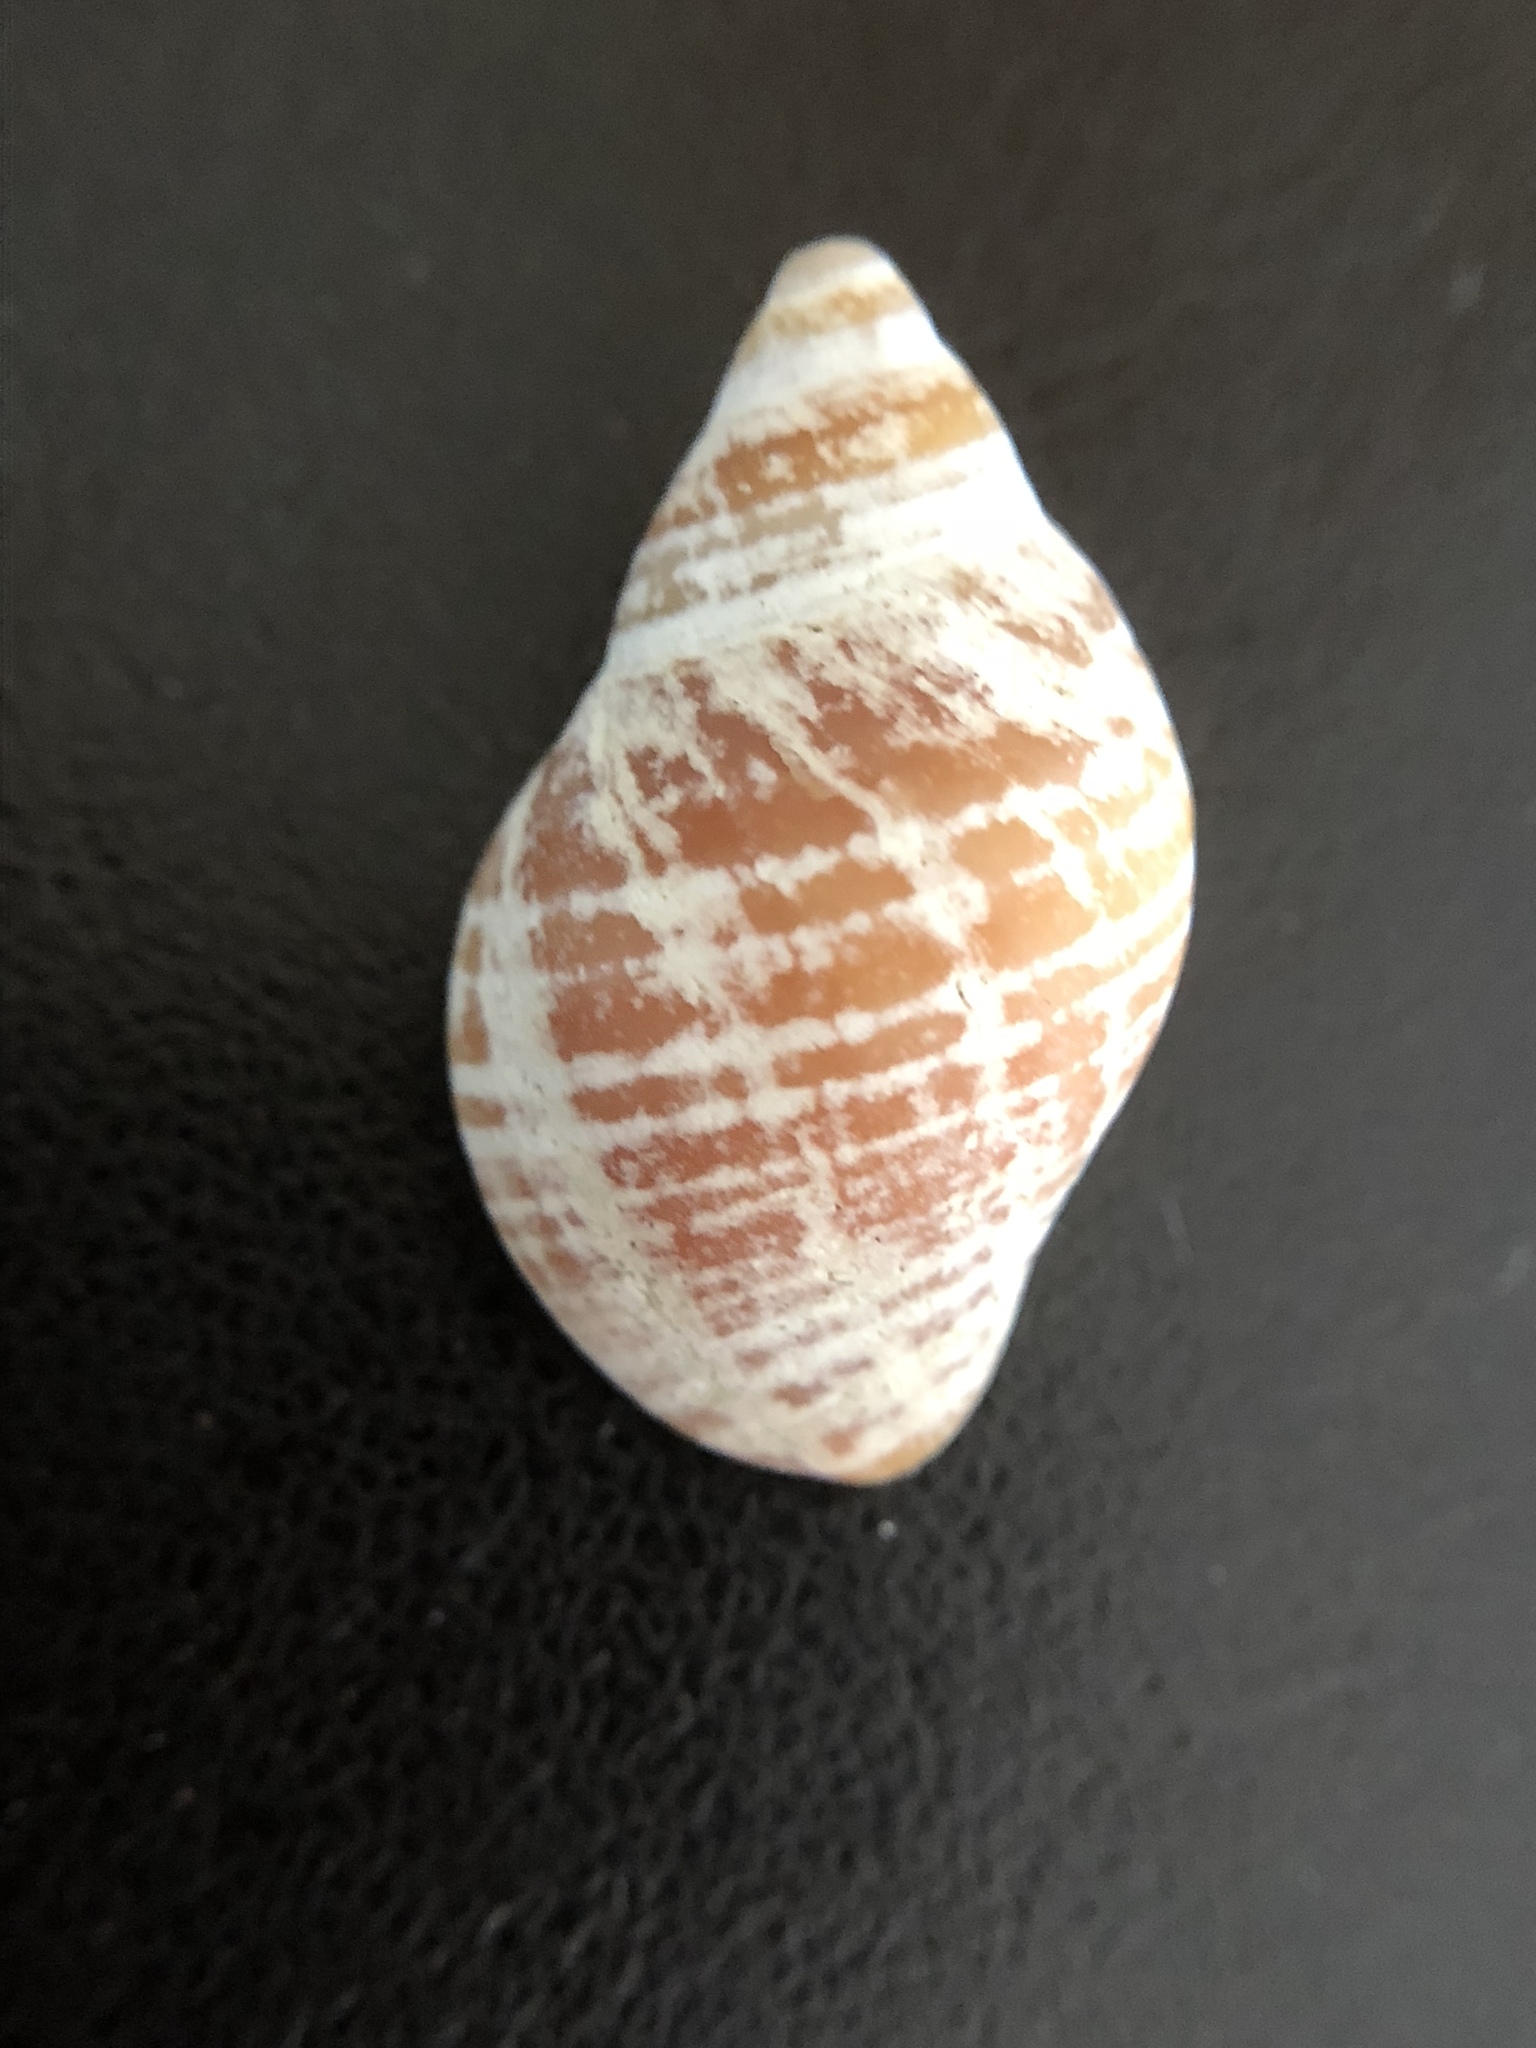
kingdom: Animalia
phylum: Mollusca
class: Gastropoda
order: Neogastropoda
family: Muricidae
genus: Nucella
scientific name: Nucella lapillus
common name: Dog whelk
